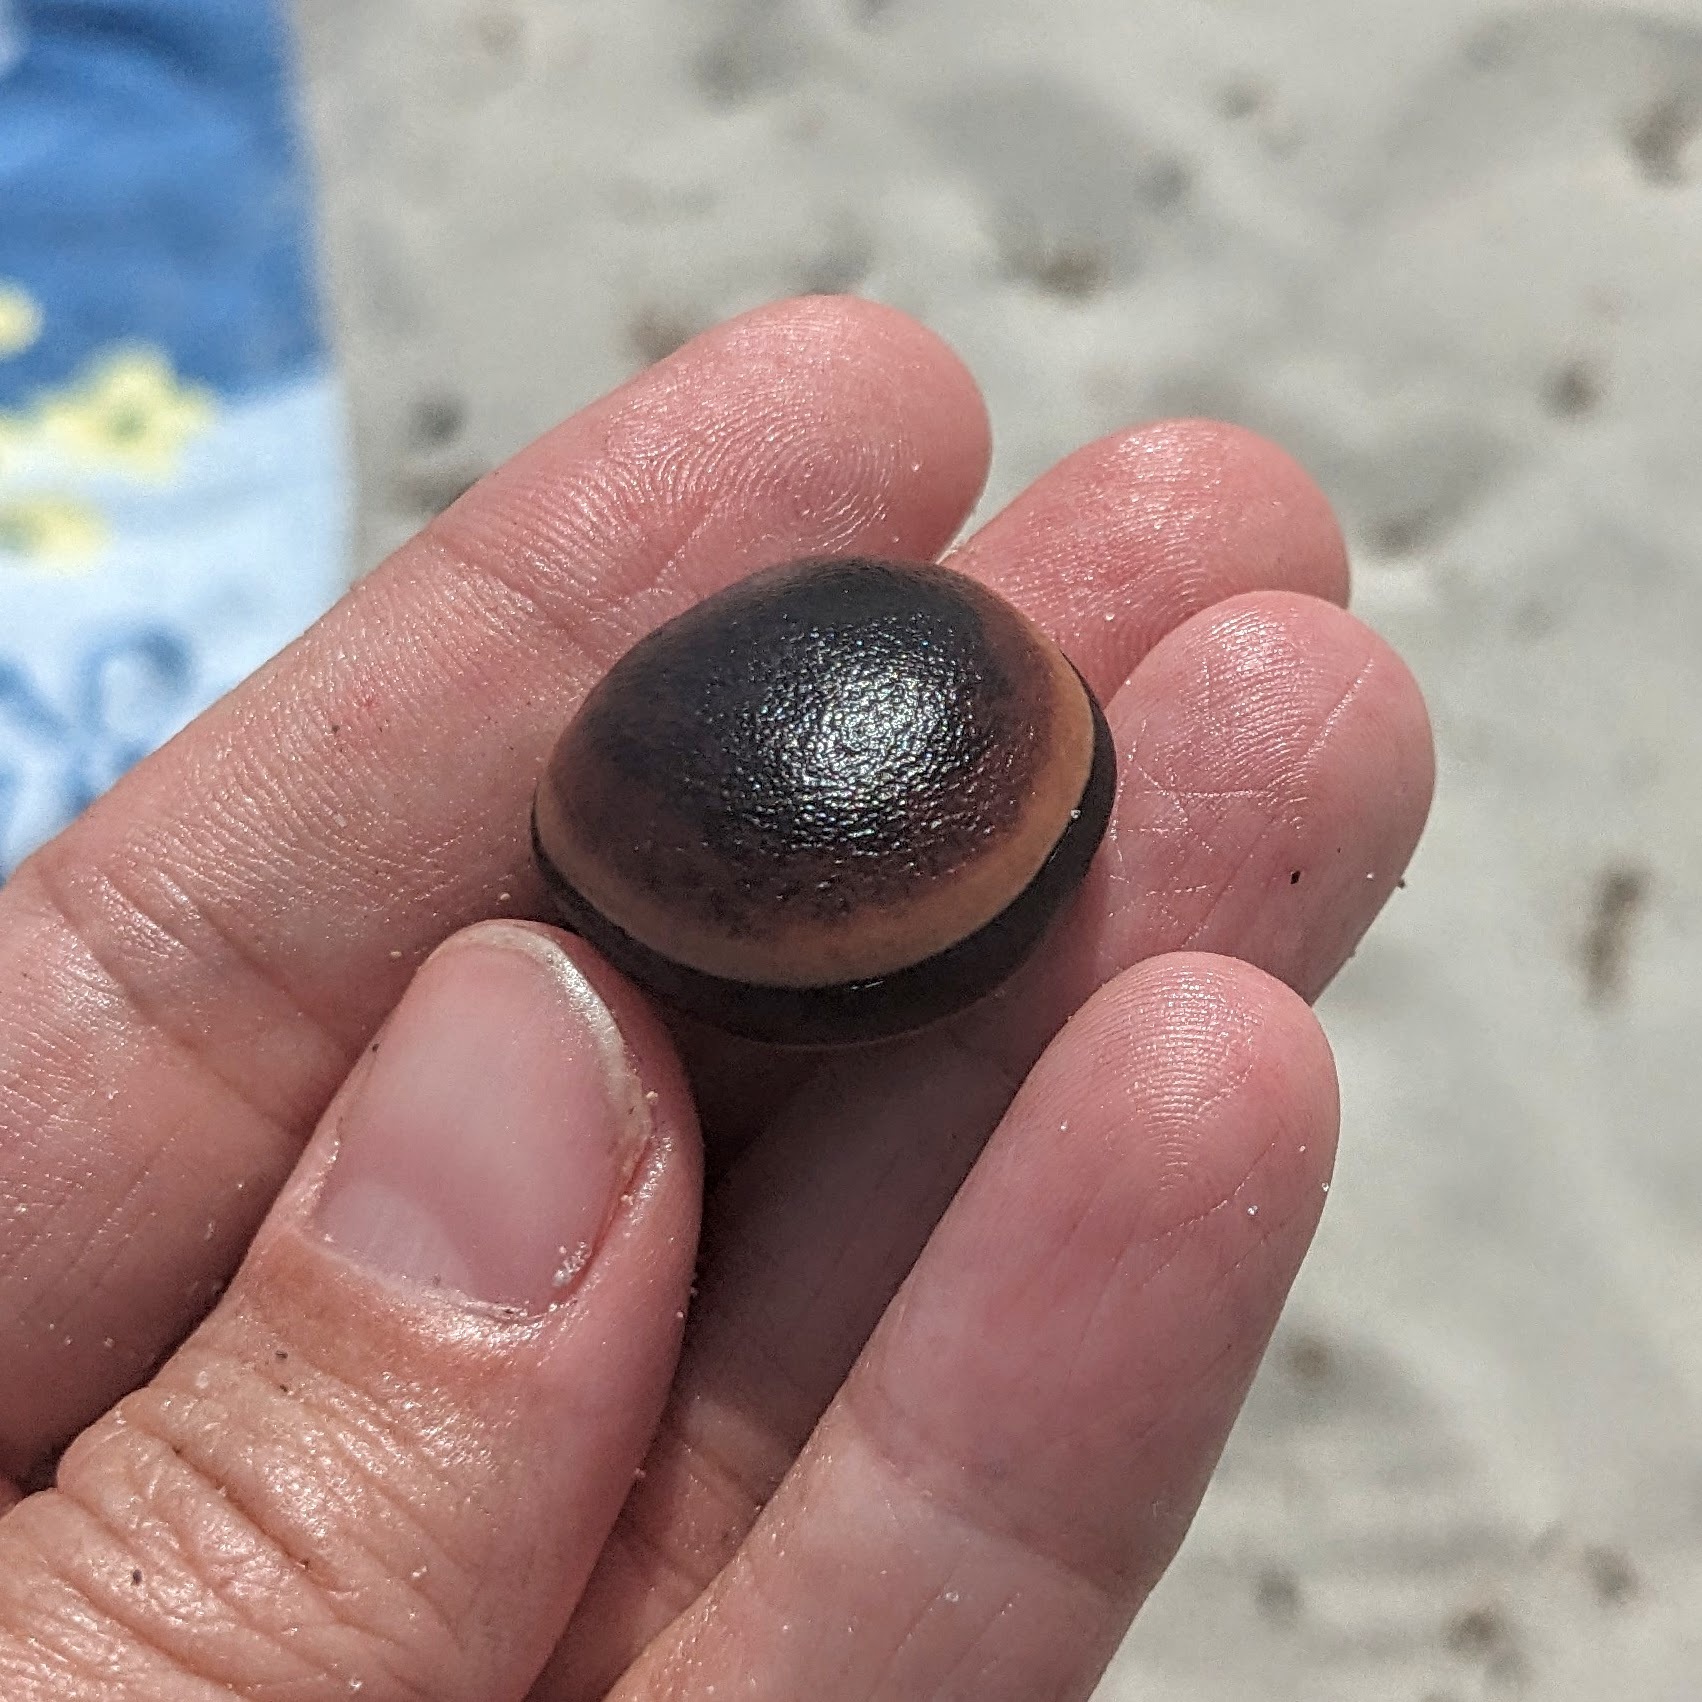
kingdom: Plantae
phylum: Tracheophyta
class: Magnoliopsida
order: Fabales
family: Fabaceae
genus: Mucuna
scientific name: Mucuna urens
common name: Red hamburger bean
